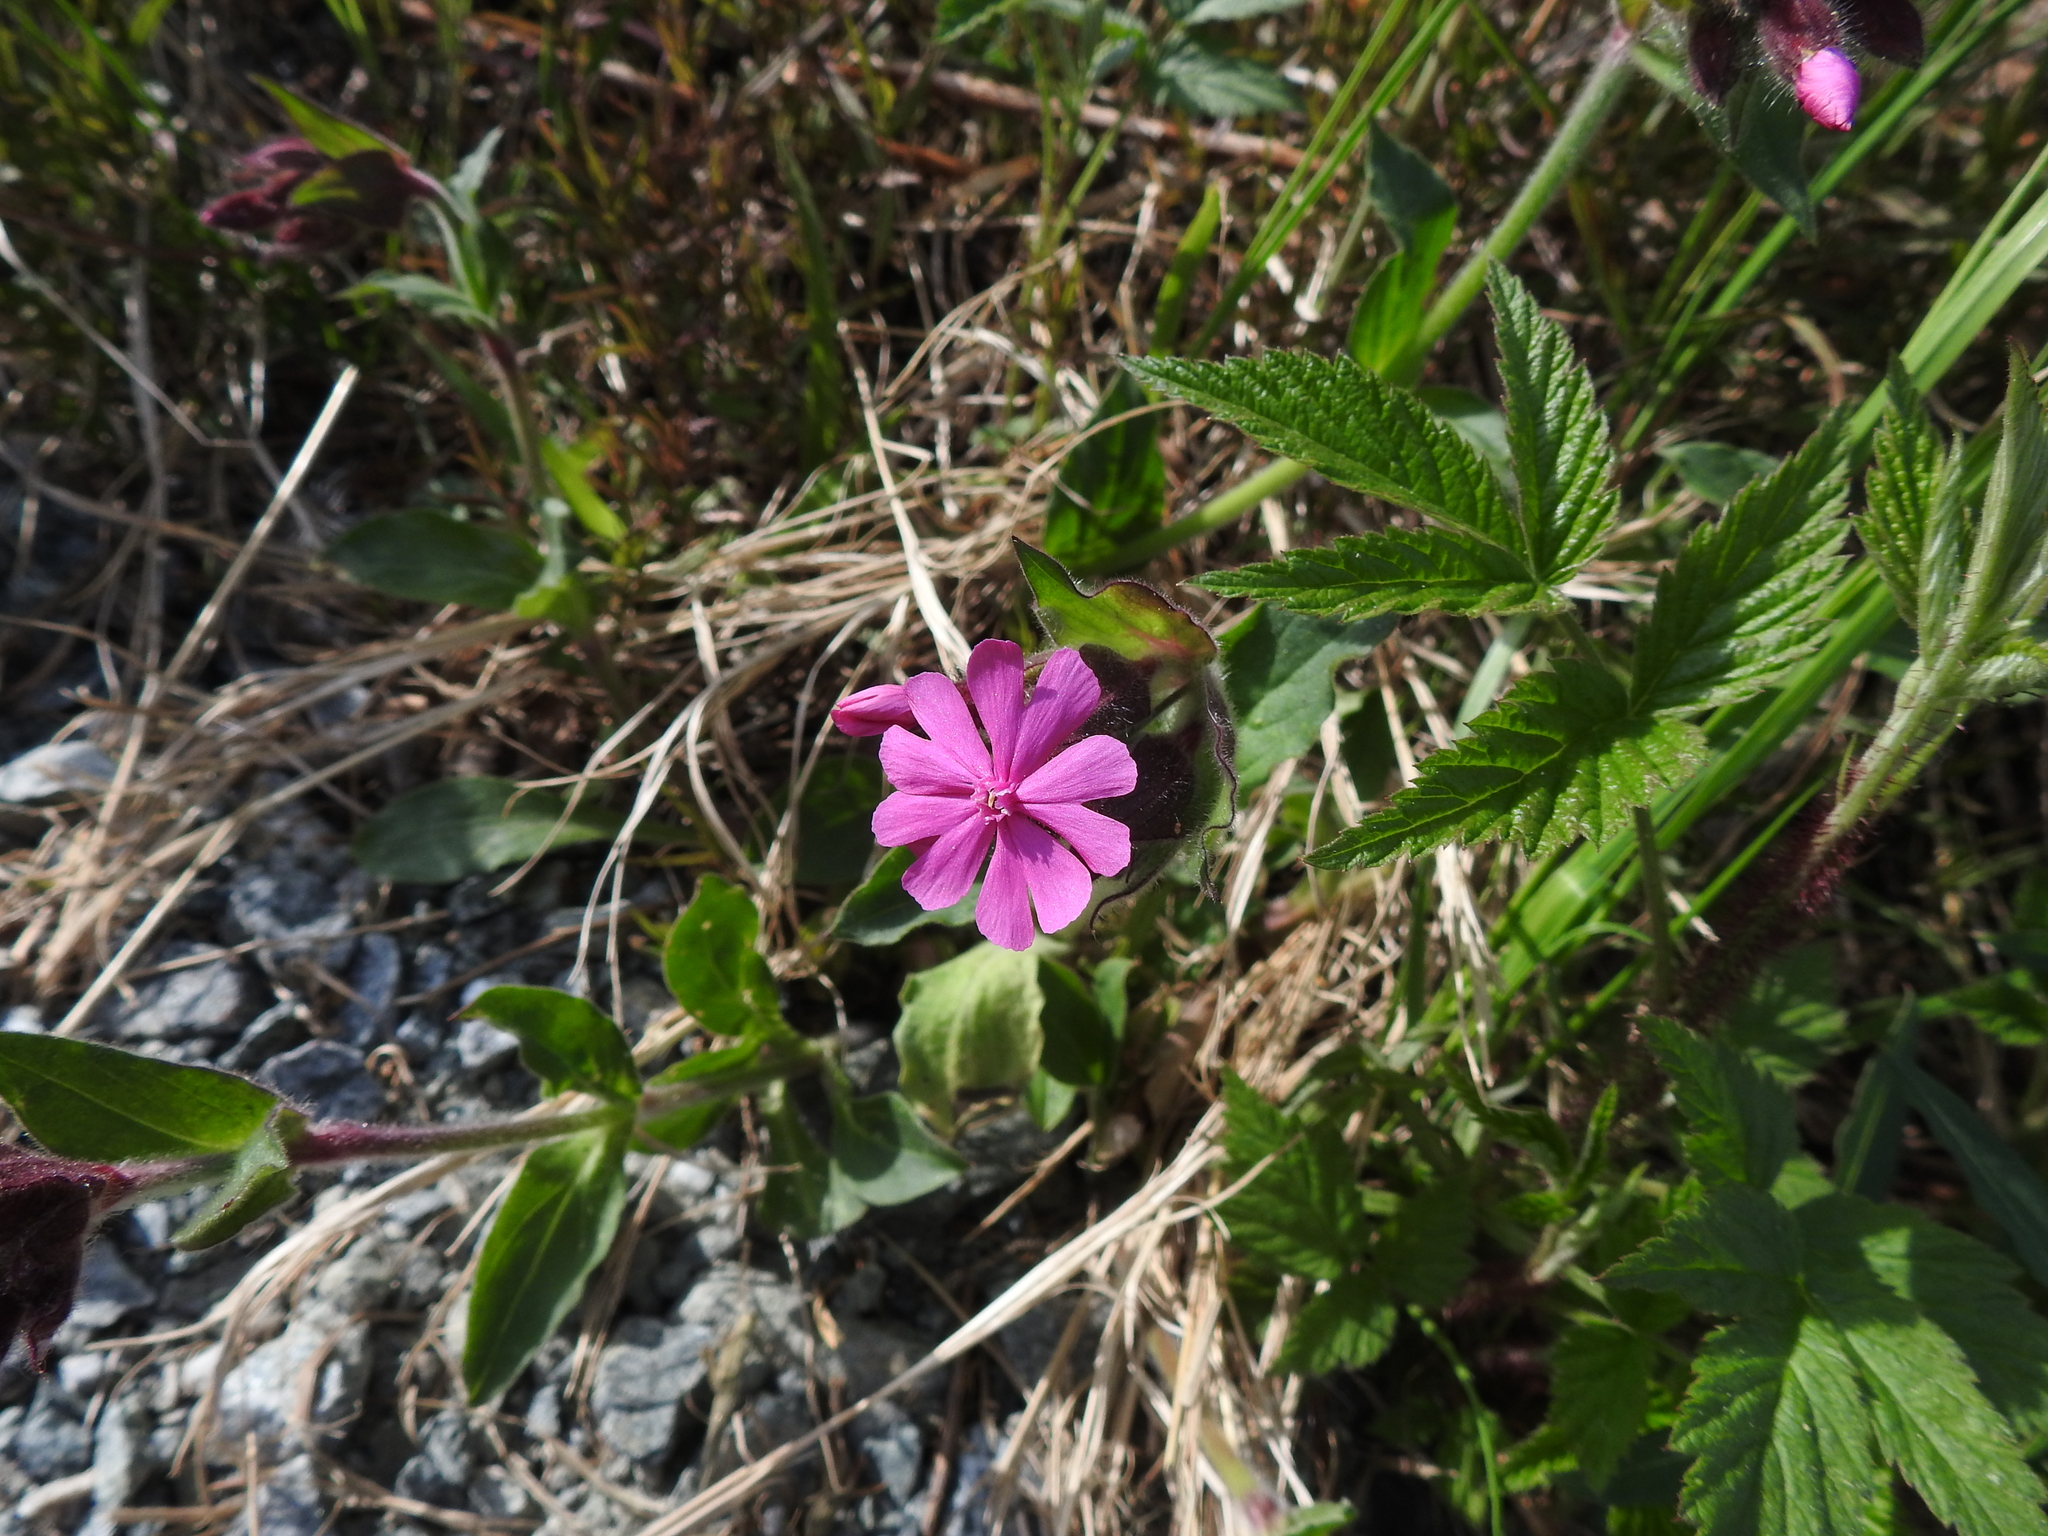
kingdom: Plantae
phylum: Tracheophyta
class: Magnoliopsida
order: Caryophyllales
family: Caryophyllaceae
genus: Silene
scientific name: Silene dioica
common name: Red campion
